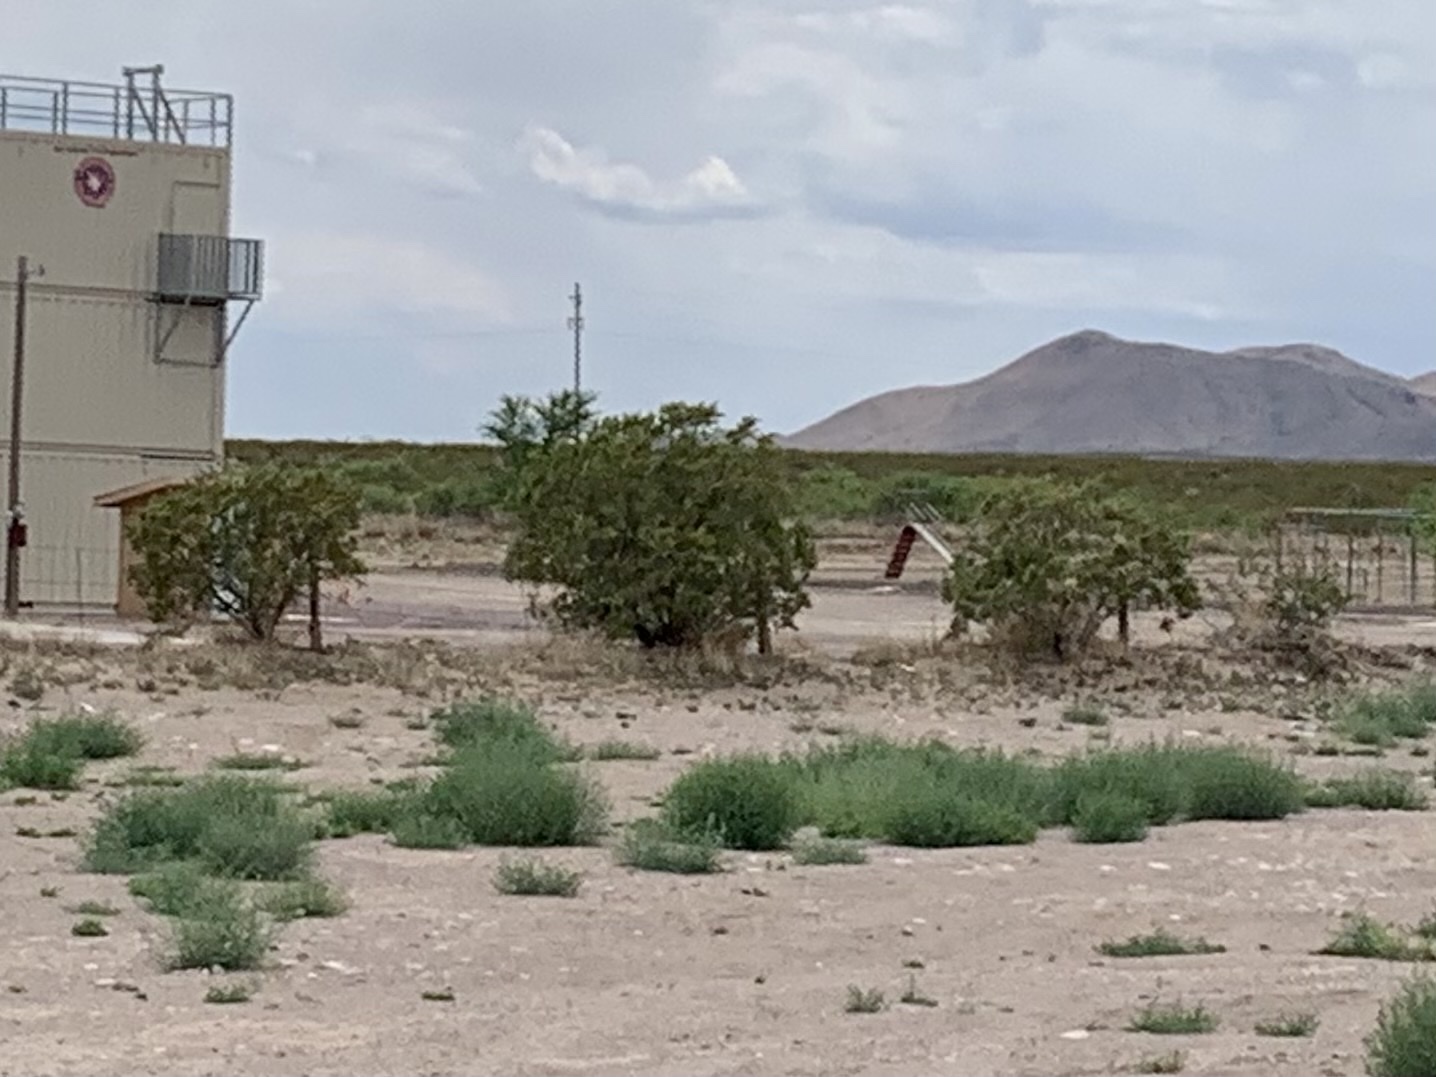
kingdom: Plantae
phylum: Tracheophyta
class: Magnoliopsida
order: Zygophyllales
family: Zygophyllaceae
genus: Larrea
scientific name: Larrea tridentata
